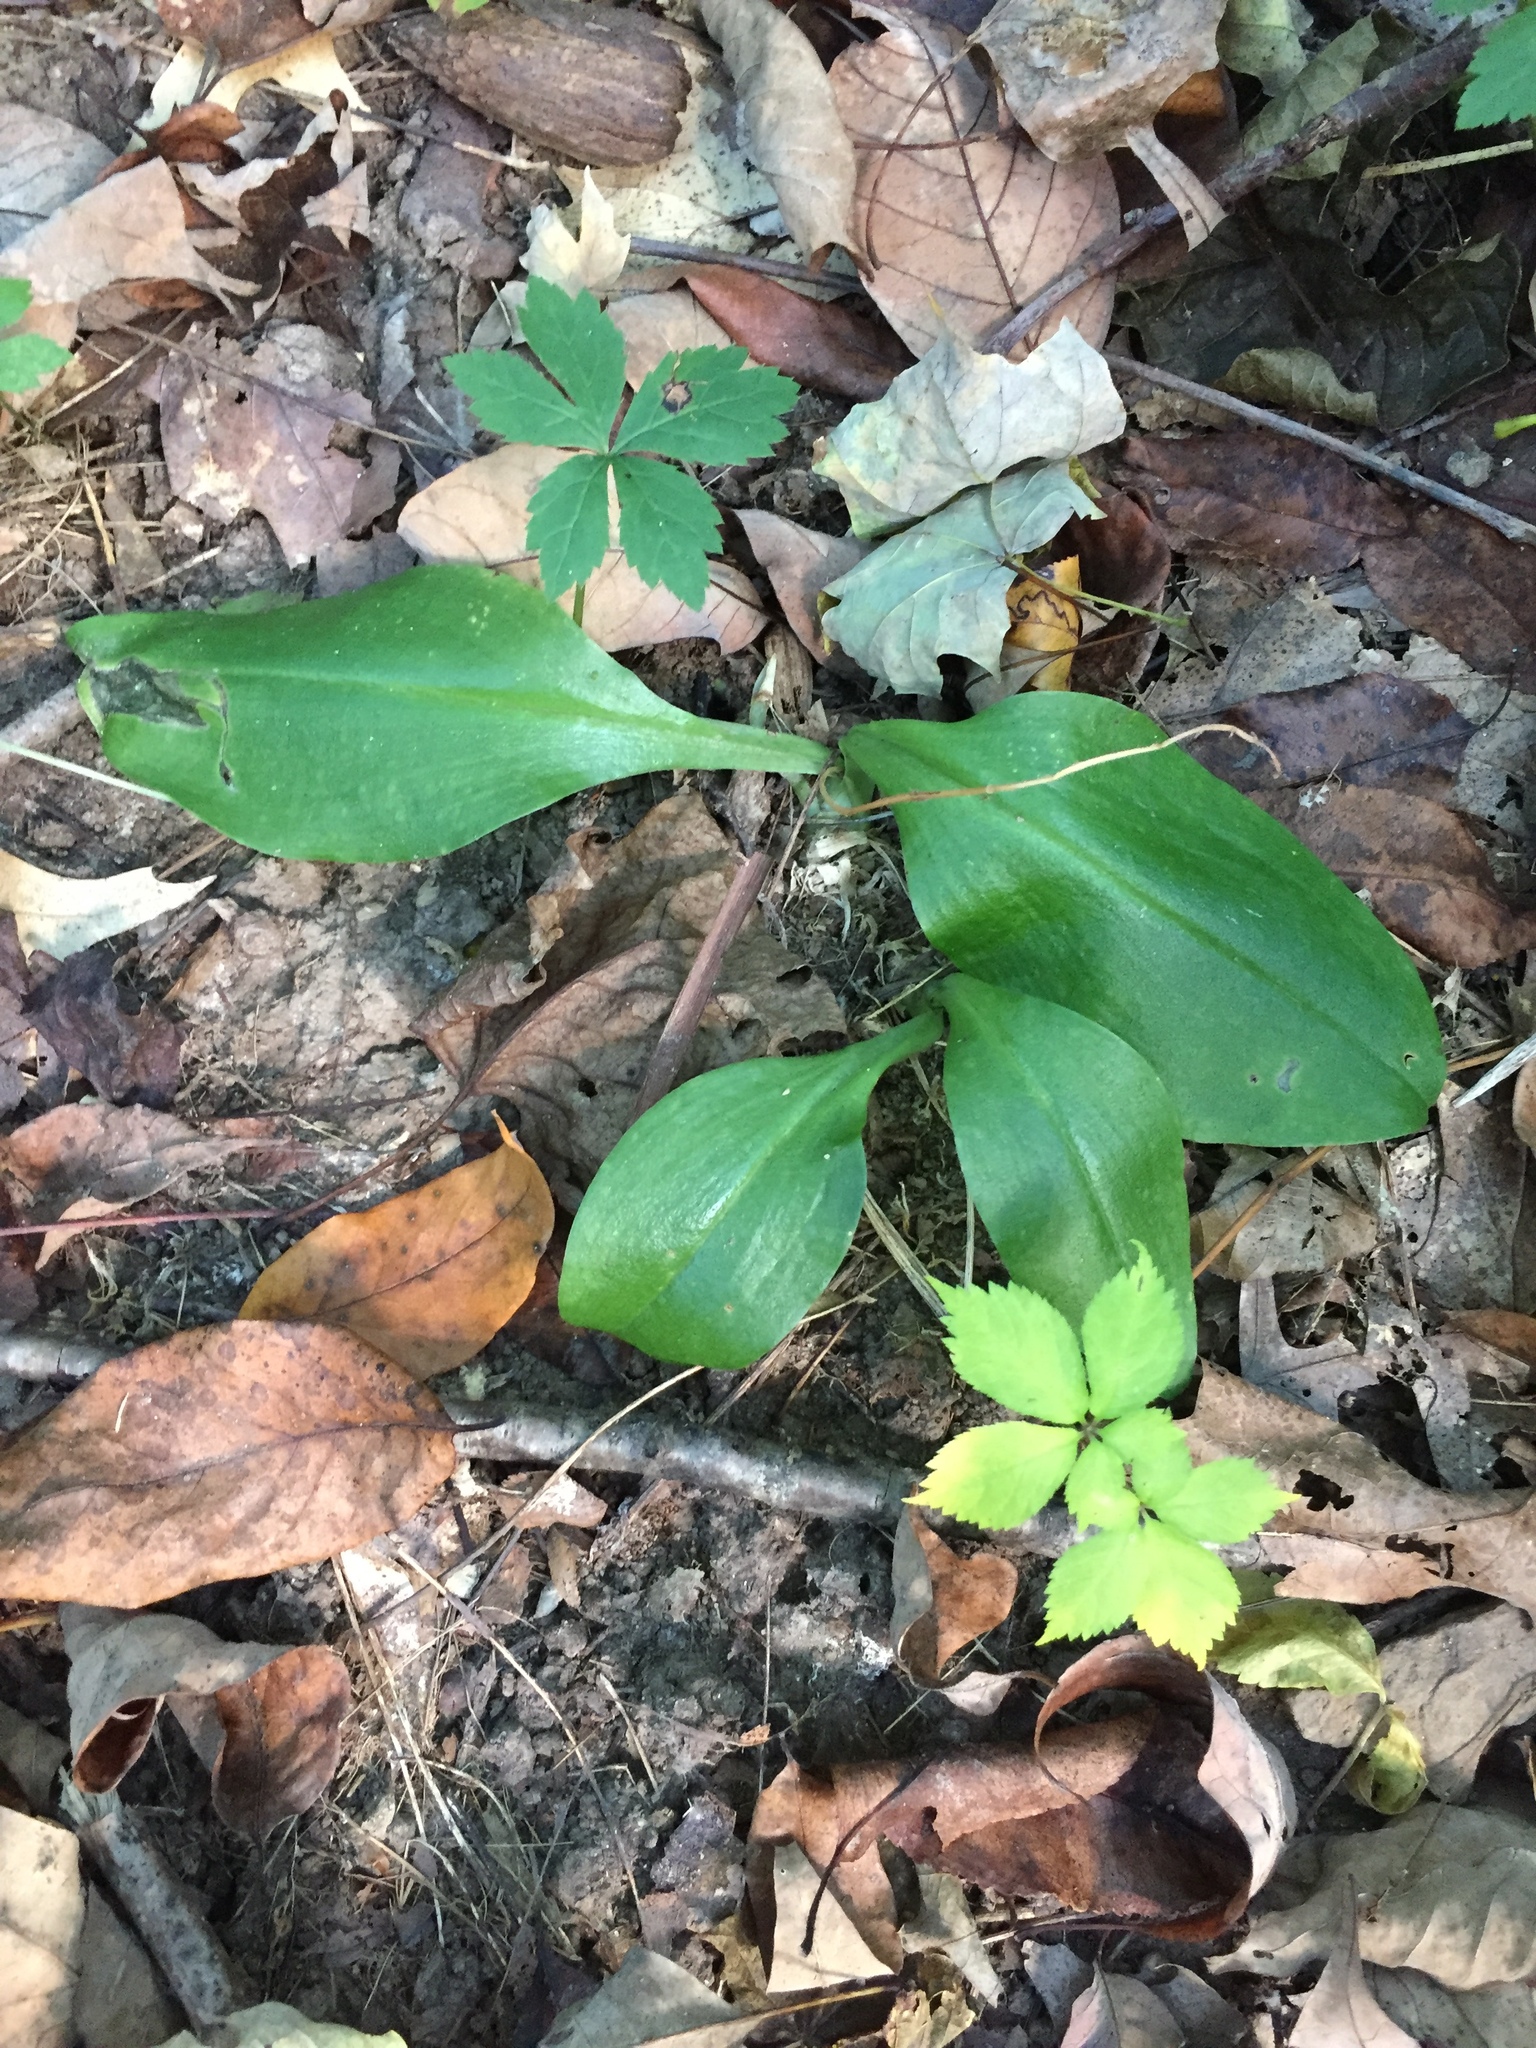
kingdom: Plantae
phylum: Tracheophyta
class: Liliopsida
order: Asparagales
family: Orchidaceae
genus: Galearis
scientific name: Galearis spectabilis
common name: Purple-hooded orchis
